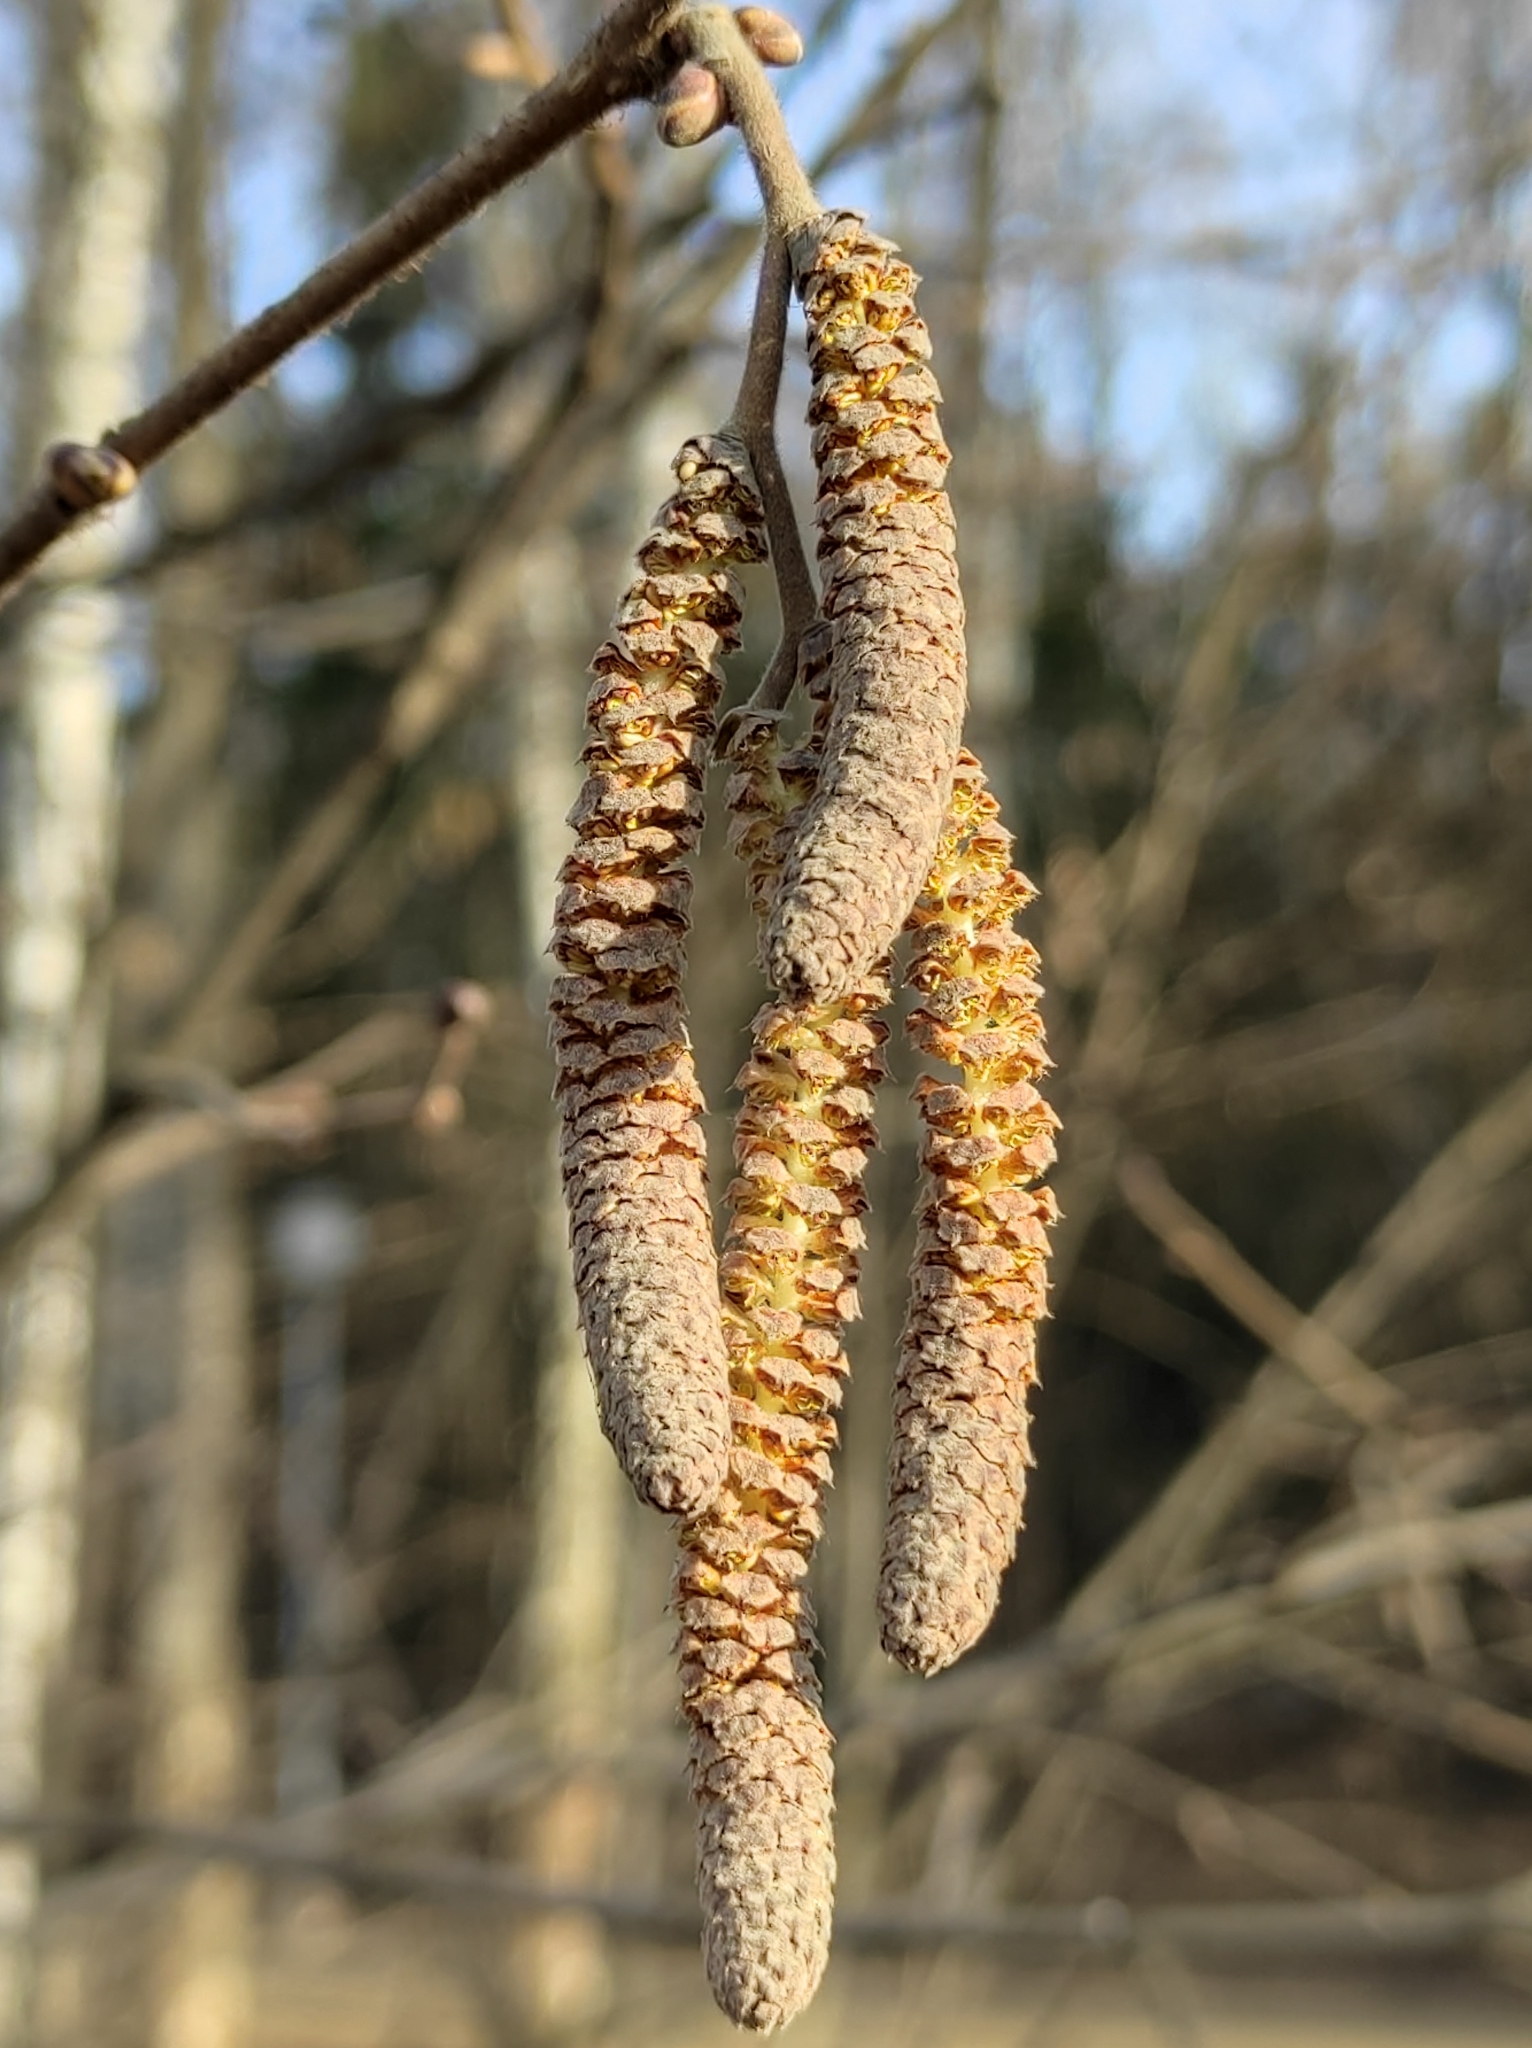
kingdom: Plantae
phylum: Tracheophyta
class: Magnoliopsida
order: Fagales
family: Betulaceae
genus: Corylus
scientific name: Corylus avellana
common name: European hazel
